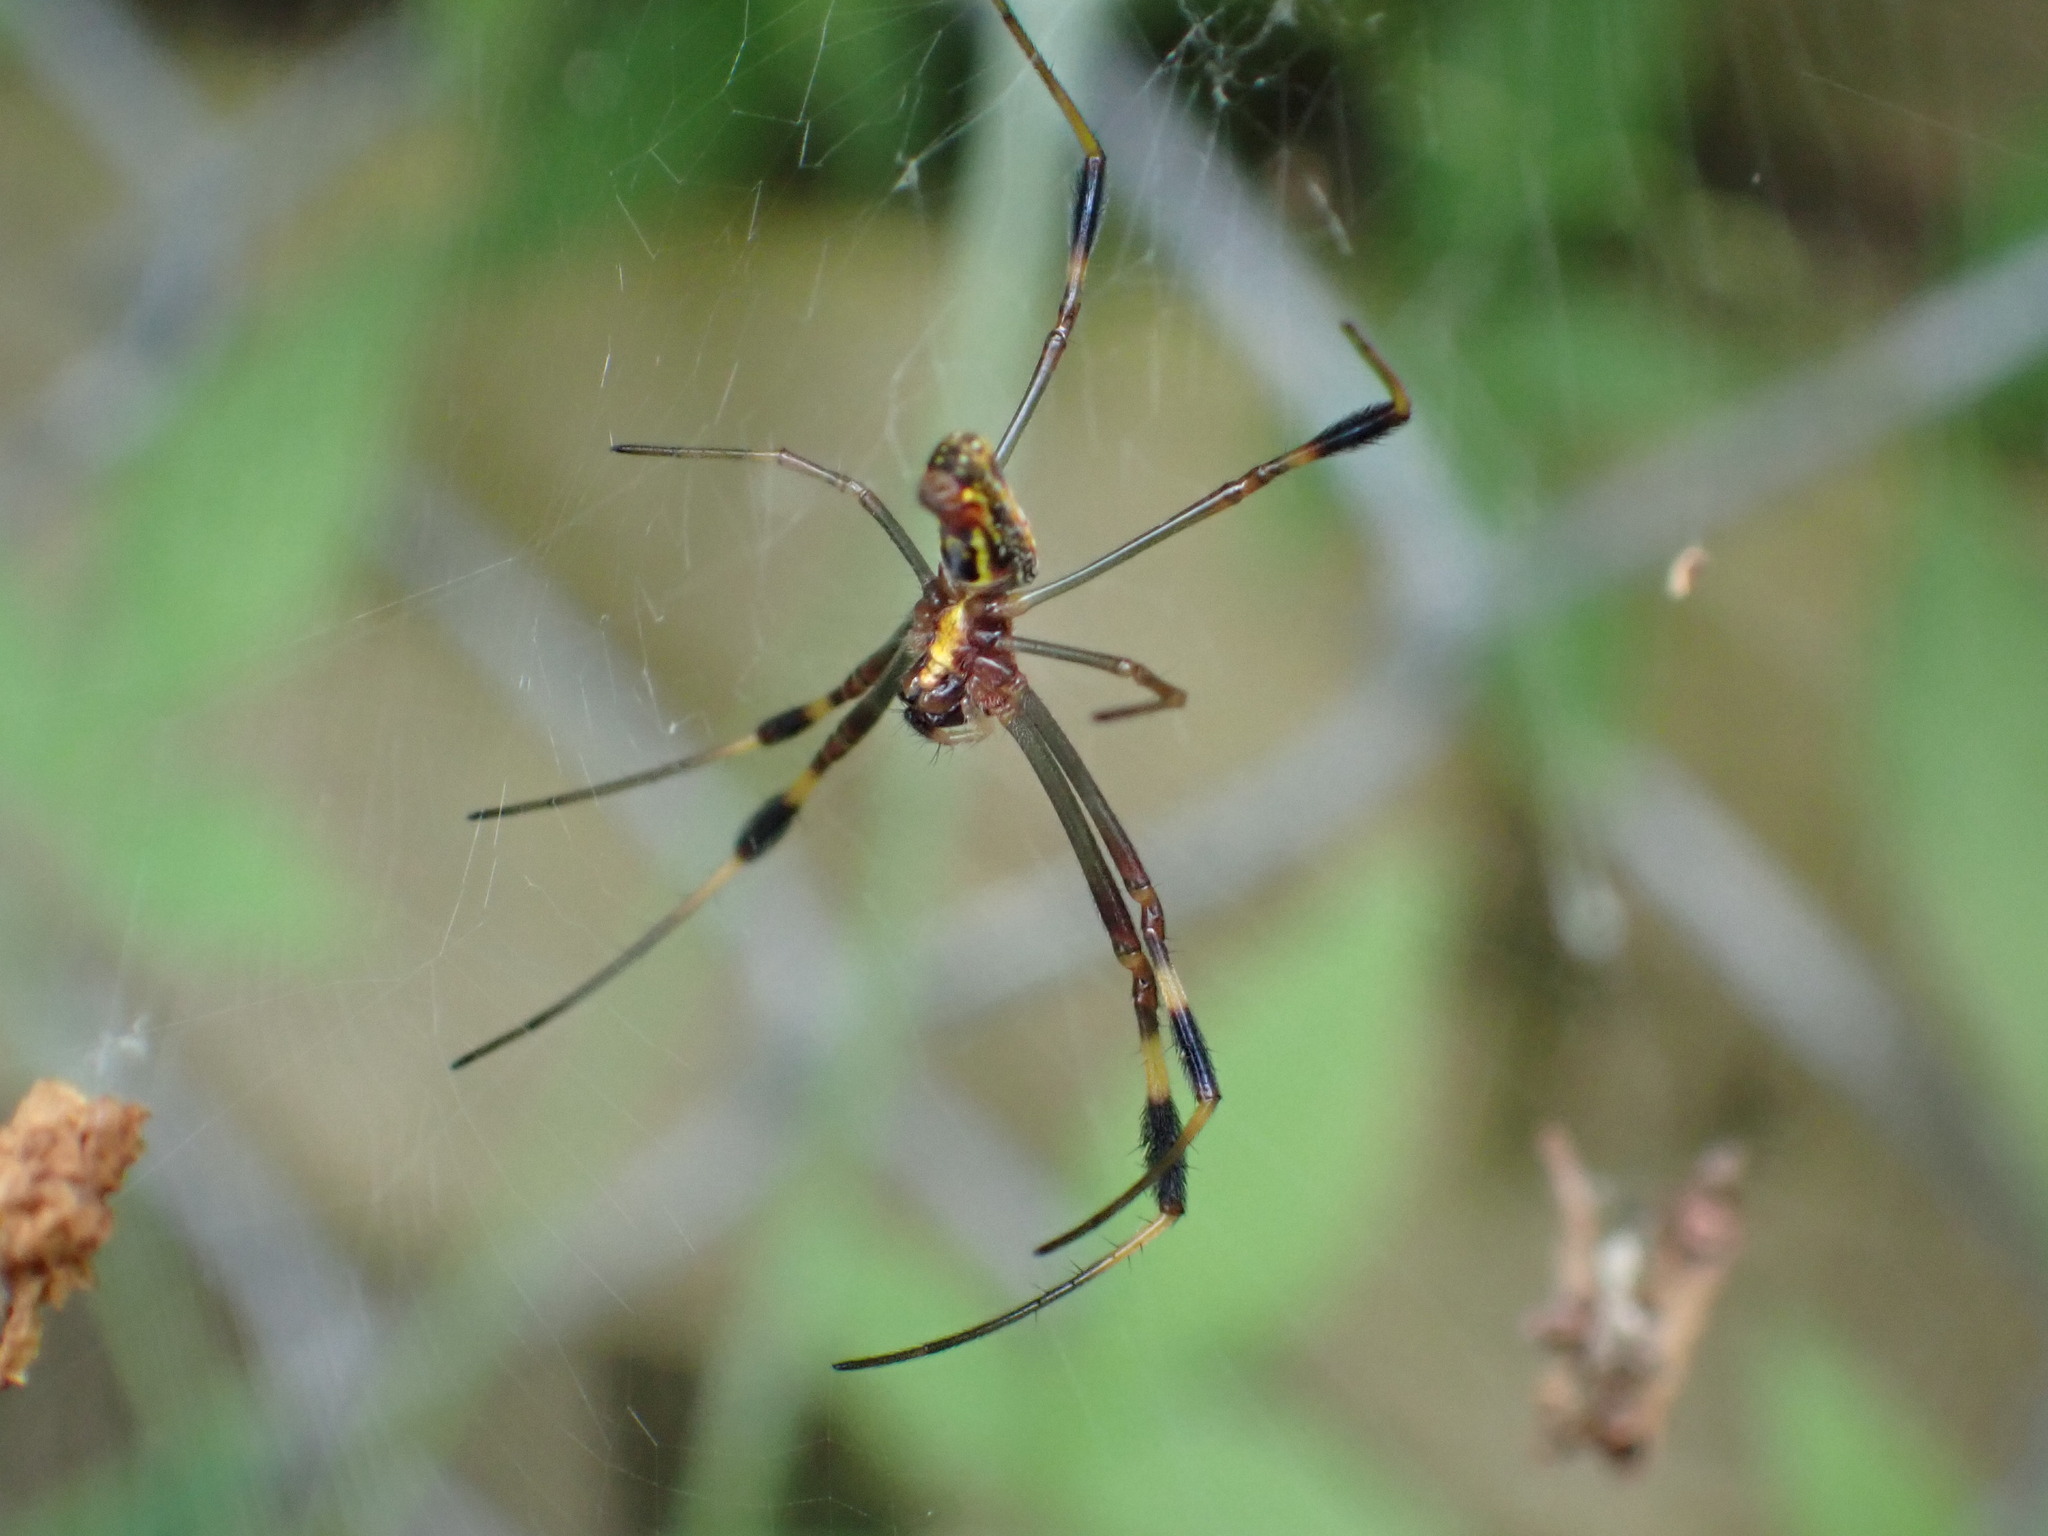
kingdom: Animalia
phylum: Arthropoda
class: Arachnida
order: Araneae
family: Araneidae
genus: Trichonephila
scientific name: Trichonephila clavipes
